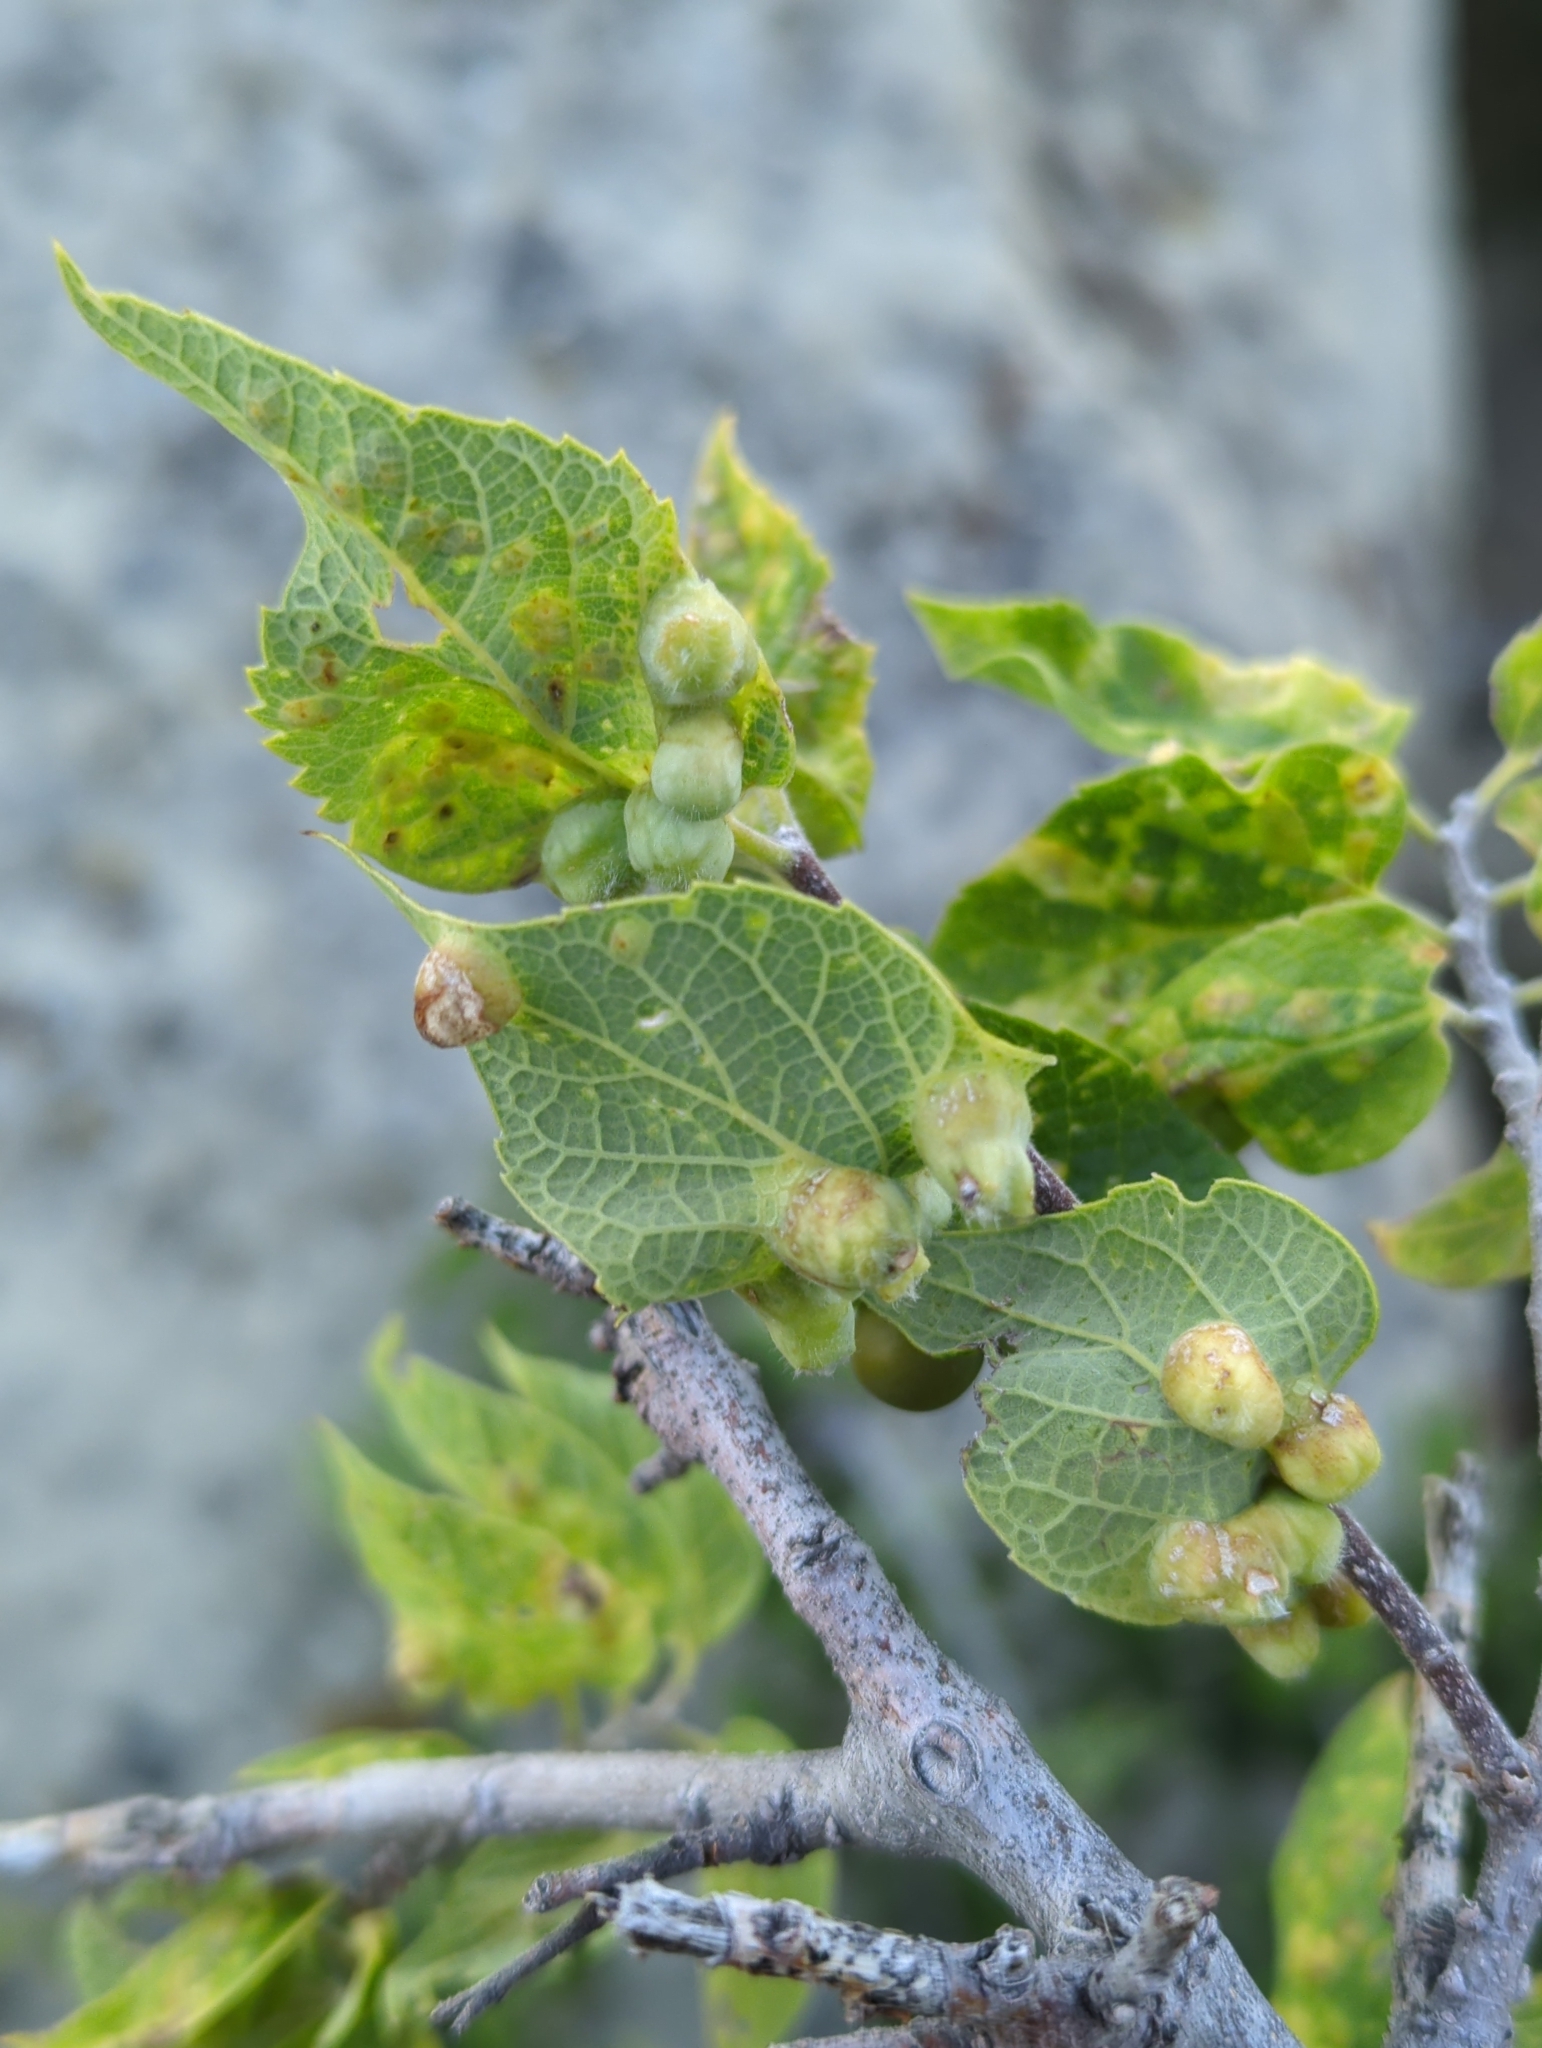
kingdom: Animalia
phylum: Arthropoda
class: Insecta
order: Hemiptera
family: Aphalaridae
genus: Pachypsylla
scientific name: Pachypsylla celtidismamma
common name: Hackberry nipplegall psyllid
